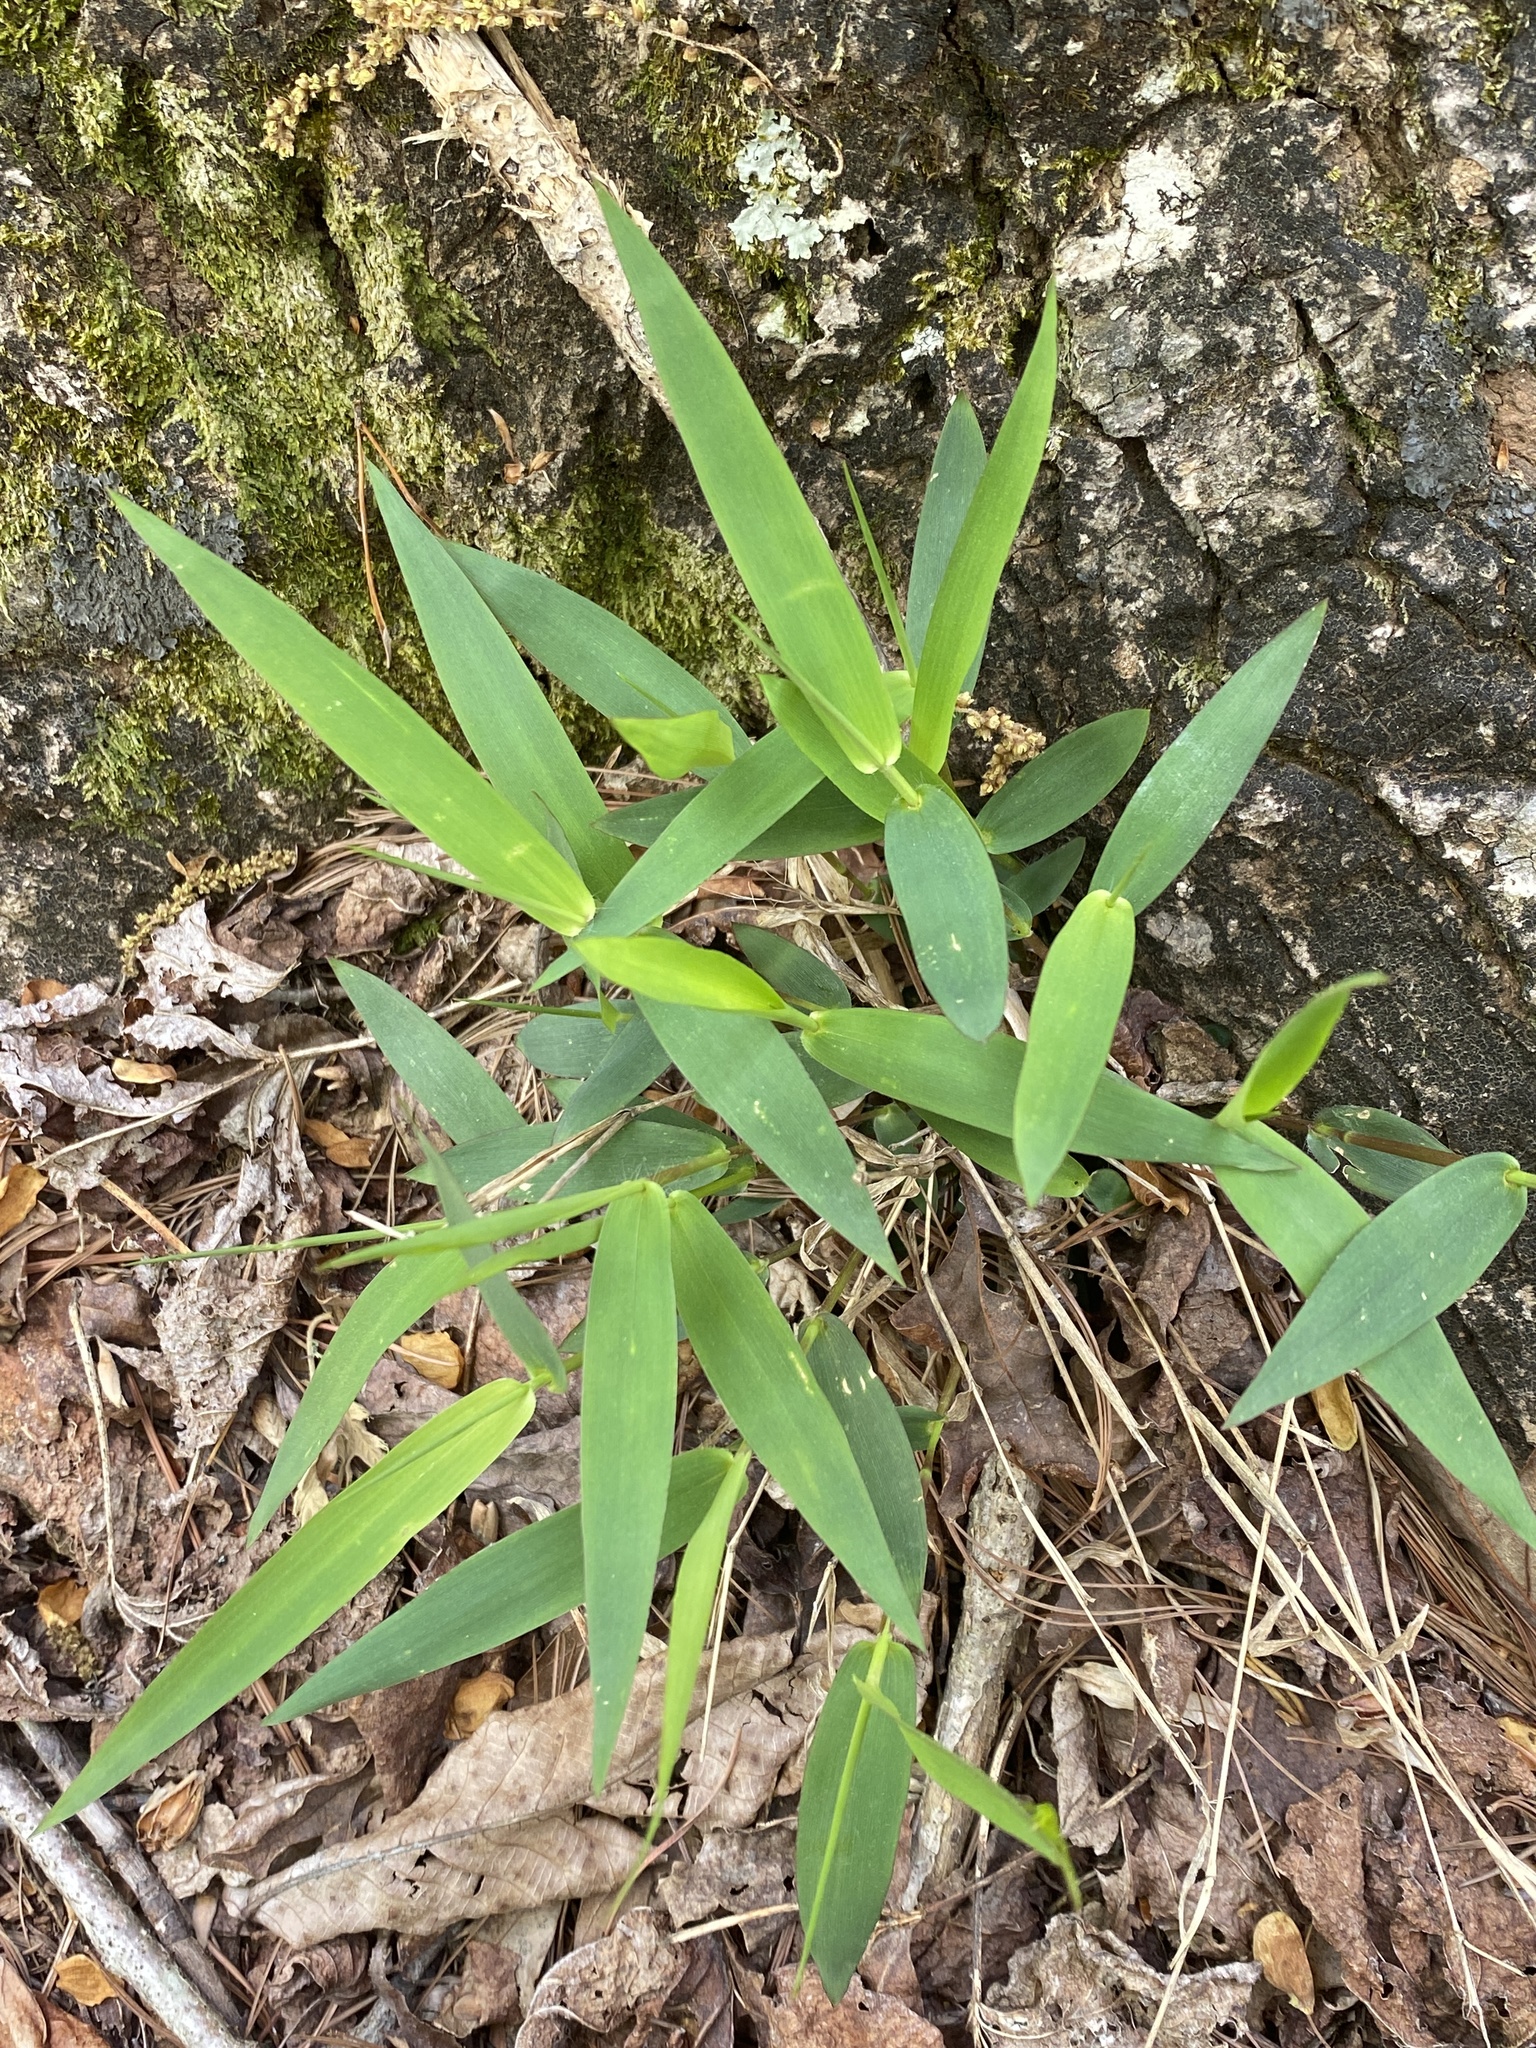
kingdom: Plantae
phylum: Tracheophyta
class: Liliopsida
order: Poales
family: Poaceae
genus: Dichanthelium
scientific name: Dichanthelium commutatum
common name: Variable witchgrass
